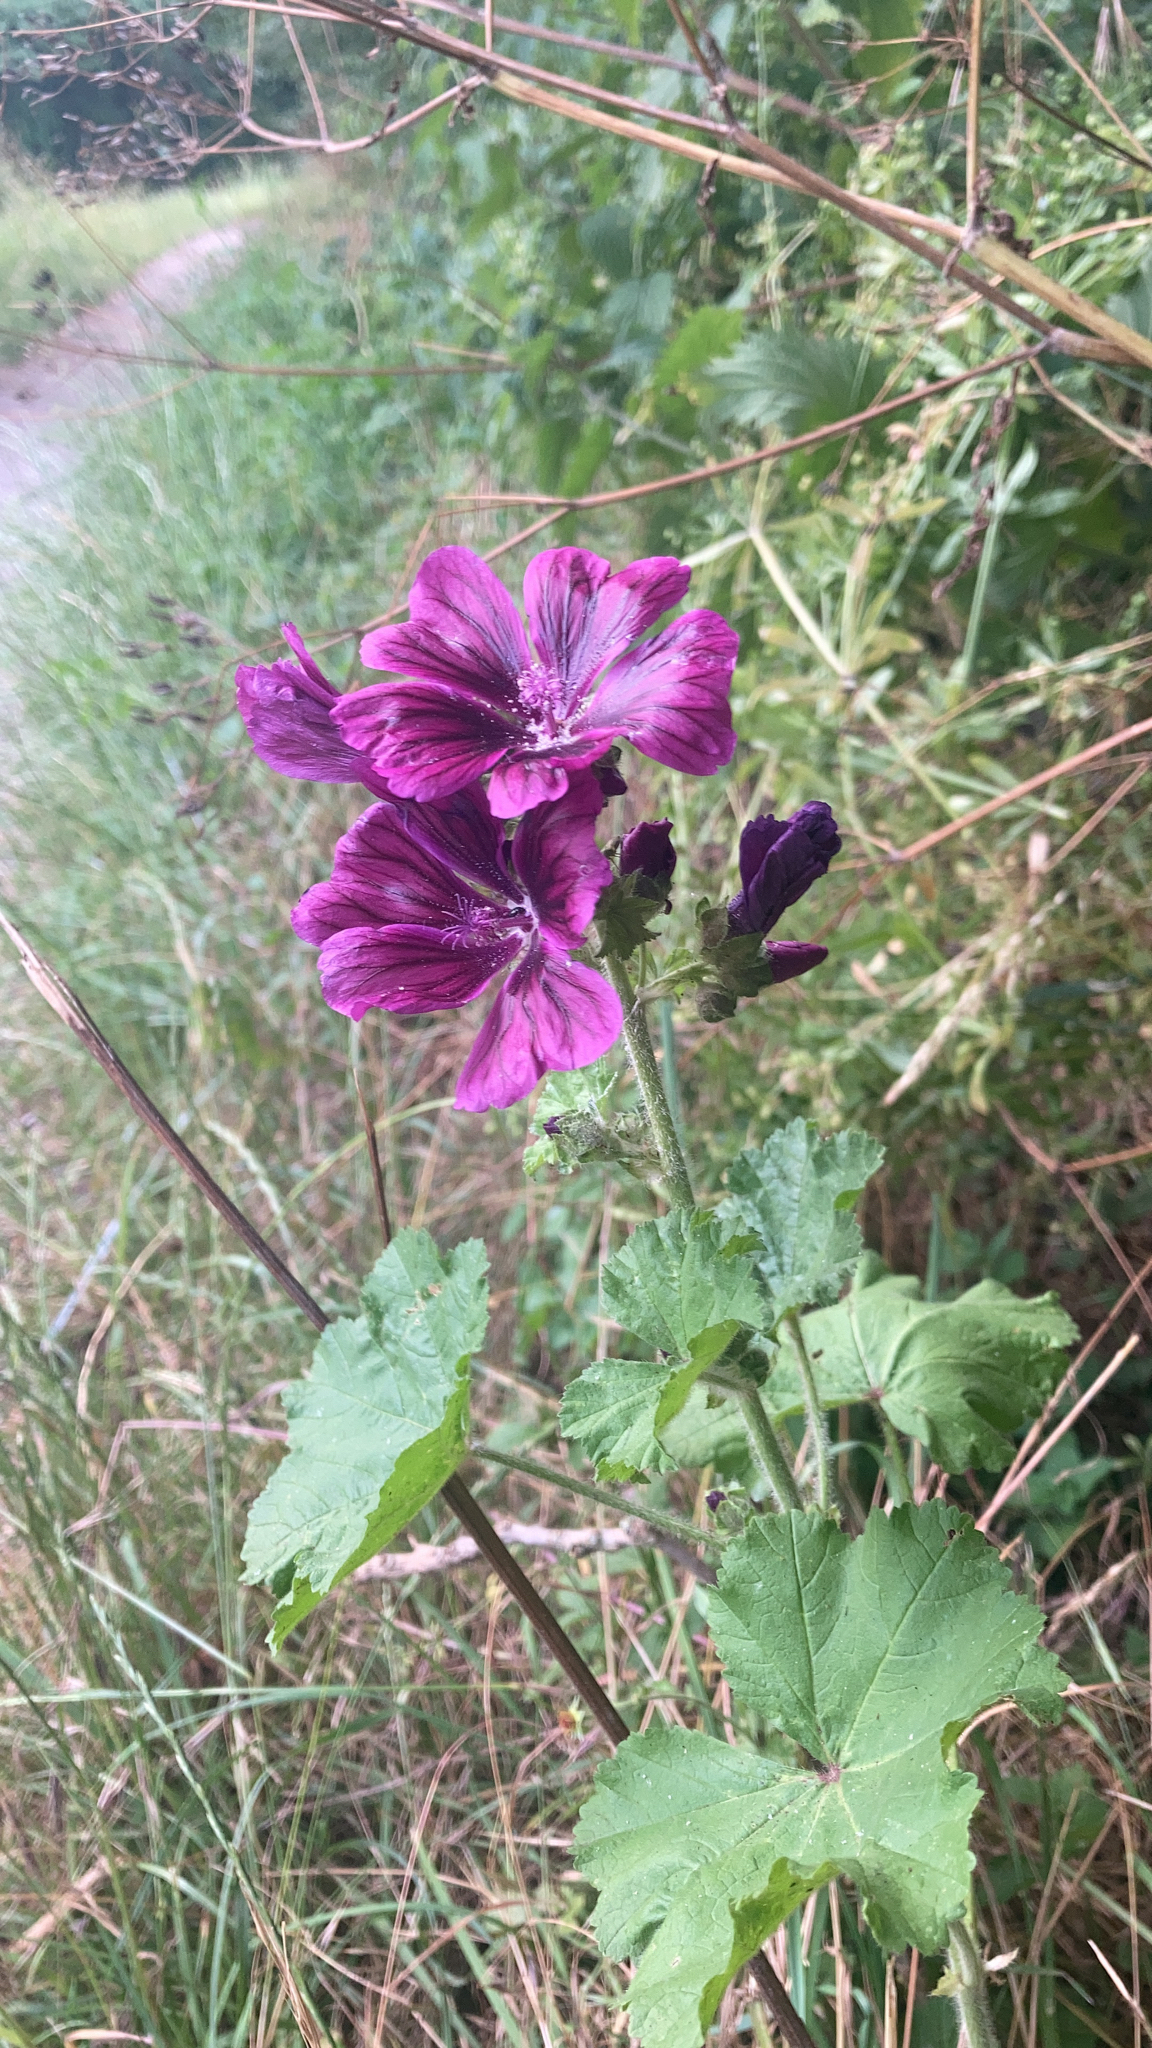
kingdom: Plantae
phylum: Tracheophyta
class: Magnoliopsida
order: Malvales
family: Malvaceae
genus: Malva
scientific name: Malva sylvestris
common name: Common mallow
